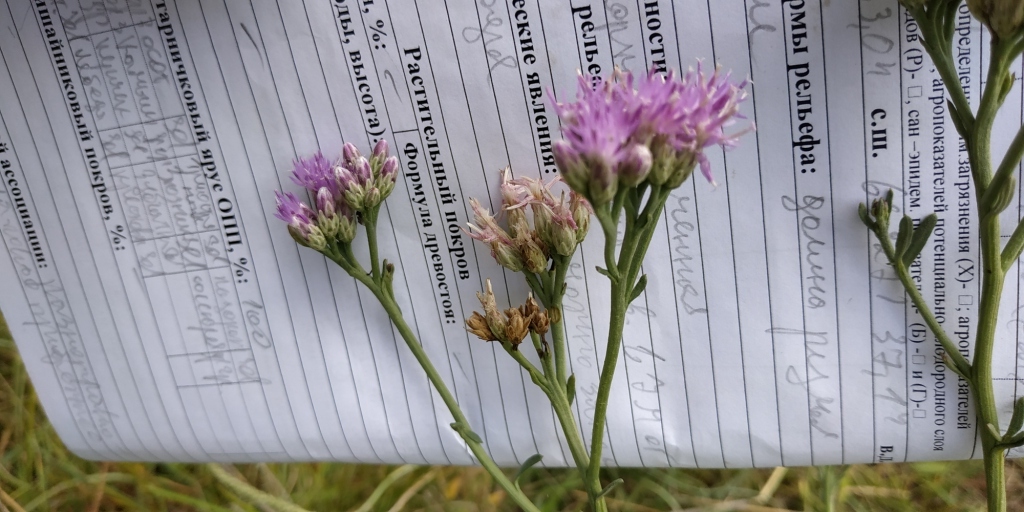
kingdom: Plantae
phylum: Tracheophyta
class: Magnoliopsida
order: Asterales
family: Asteraceae
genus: Saussurea
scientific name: Saussurea amara
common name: Alberta sawwort
